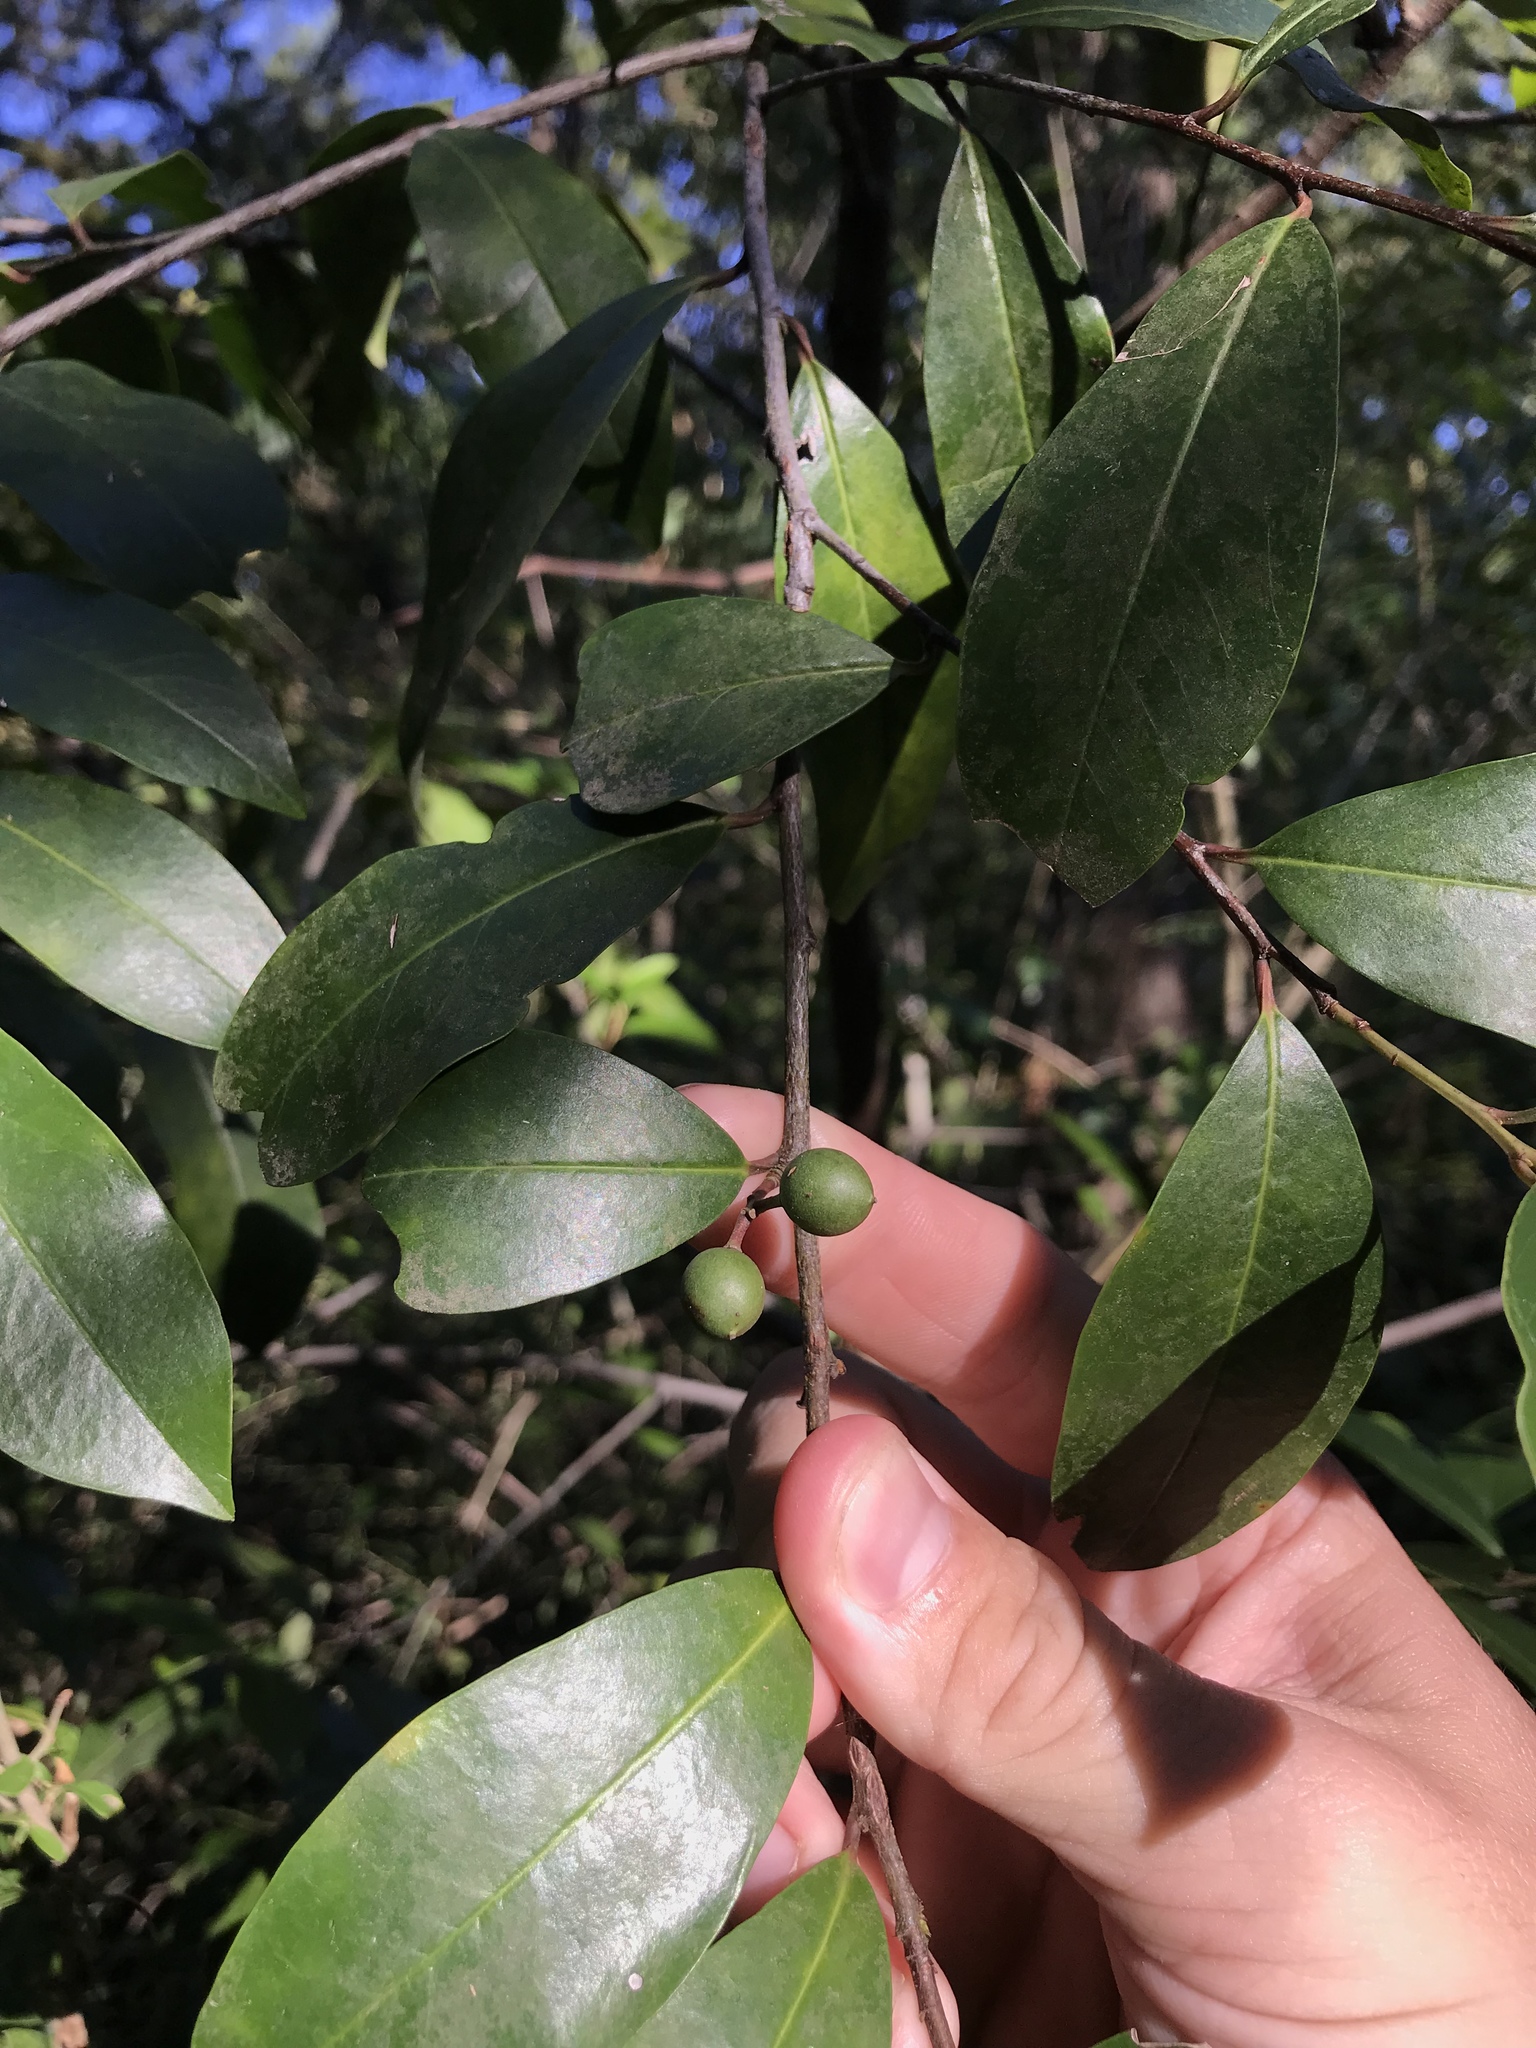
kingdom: Plantae
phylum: Tracheophyta
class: Magnoliopsida
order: Rosales
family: Rosaceae
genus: Prunus
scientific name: Prunus caroliniana
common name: Carolina laurel cherry
